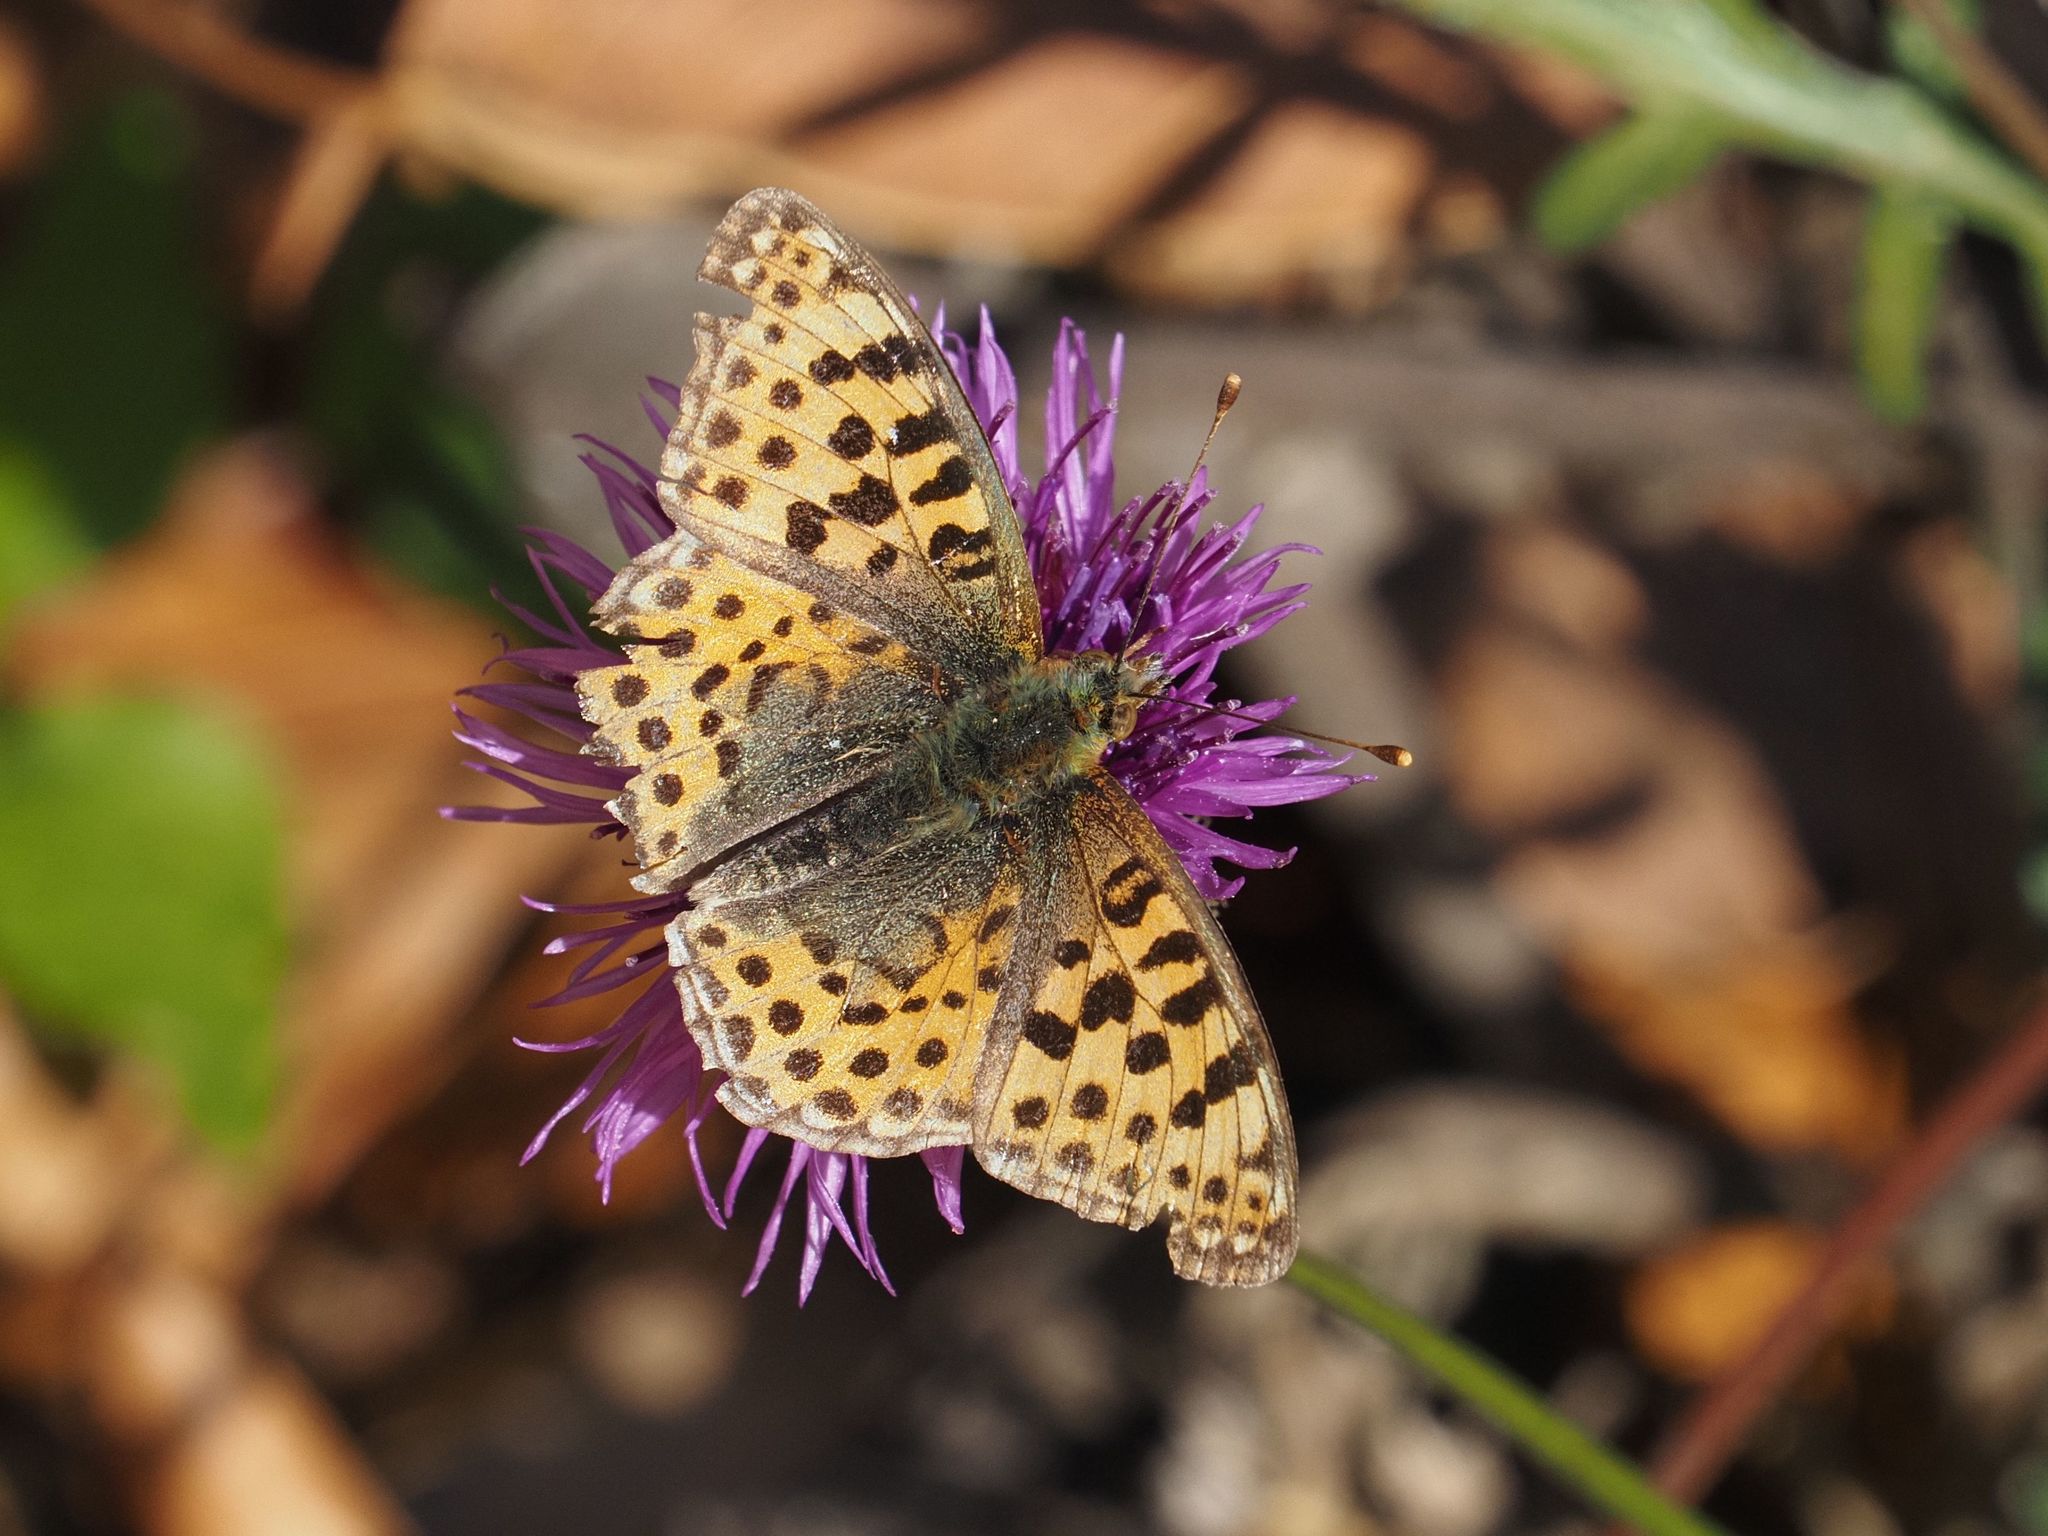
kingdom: Animalia
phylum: Arthropoda
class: Insecta
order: Lepidoptera
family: Nymphalidae
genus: Issoria
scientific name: Issoria lathonia
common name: Queen of spain fritillary
